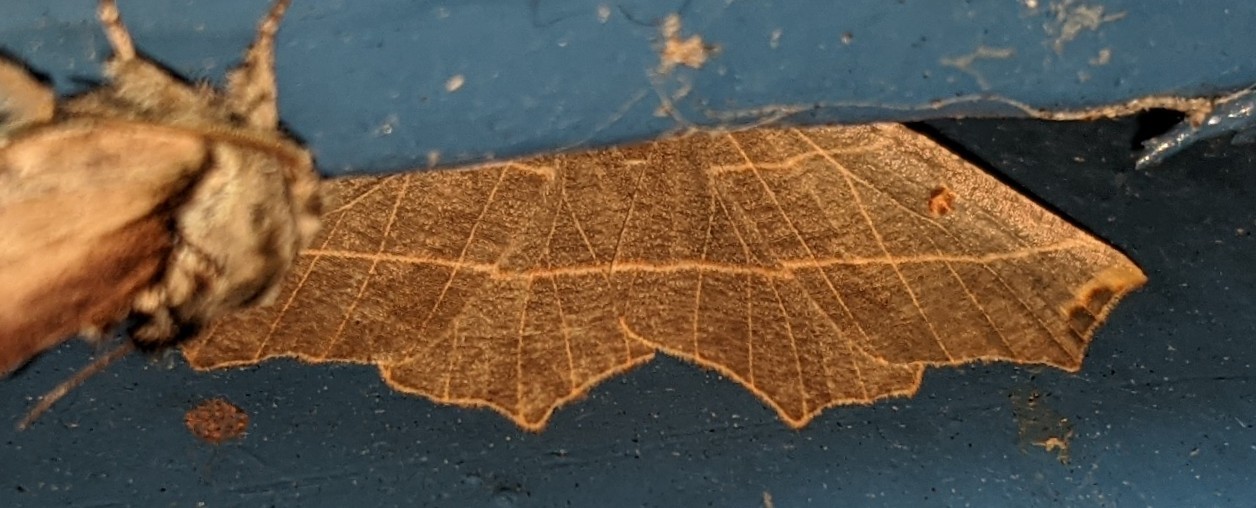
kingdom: Animalia
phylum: Arthropoda
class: Insecta
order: Lepidoptera
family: Geometridae
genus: Metanema
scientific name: Metanema inatomaria
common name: Pale metanema
